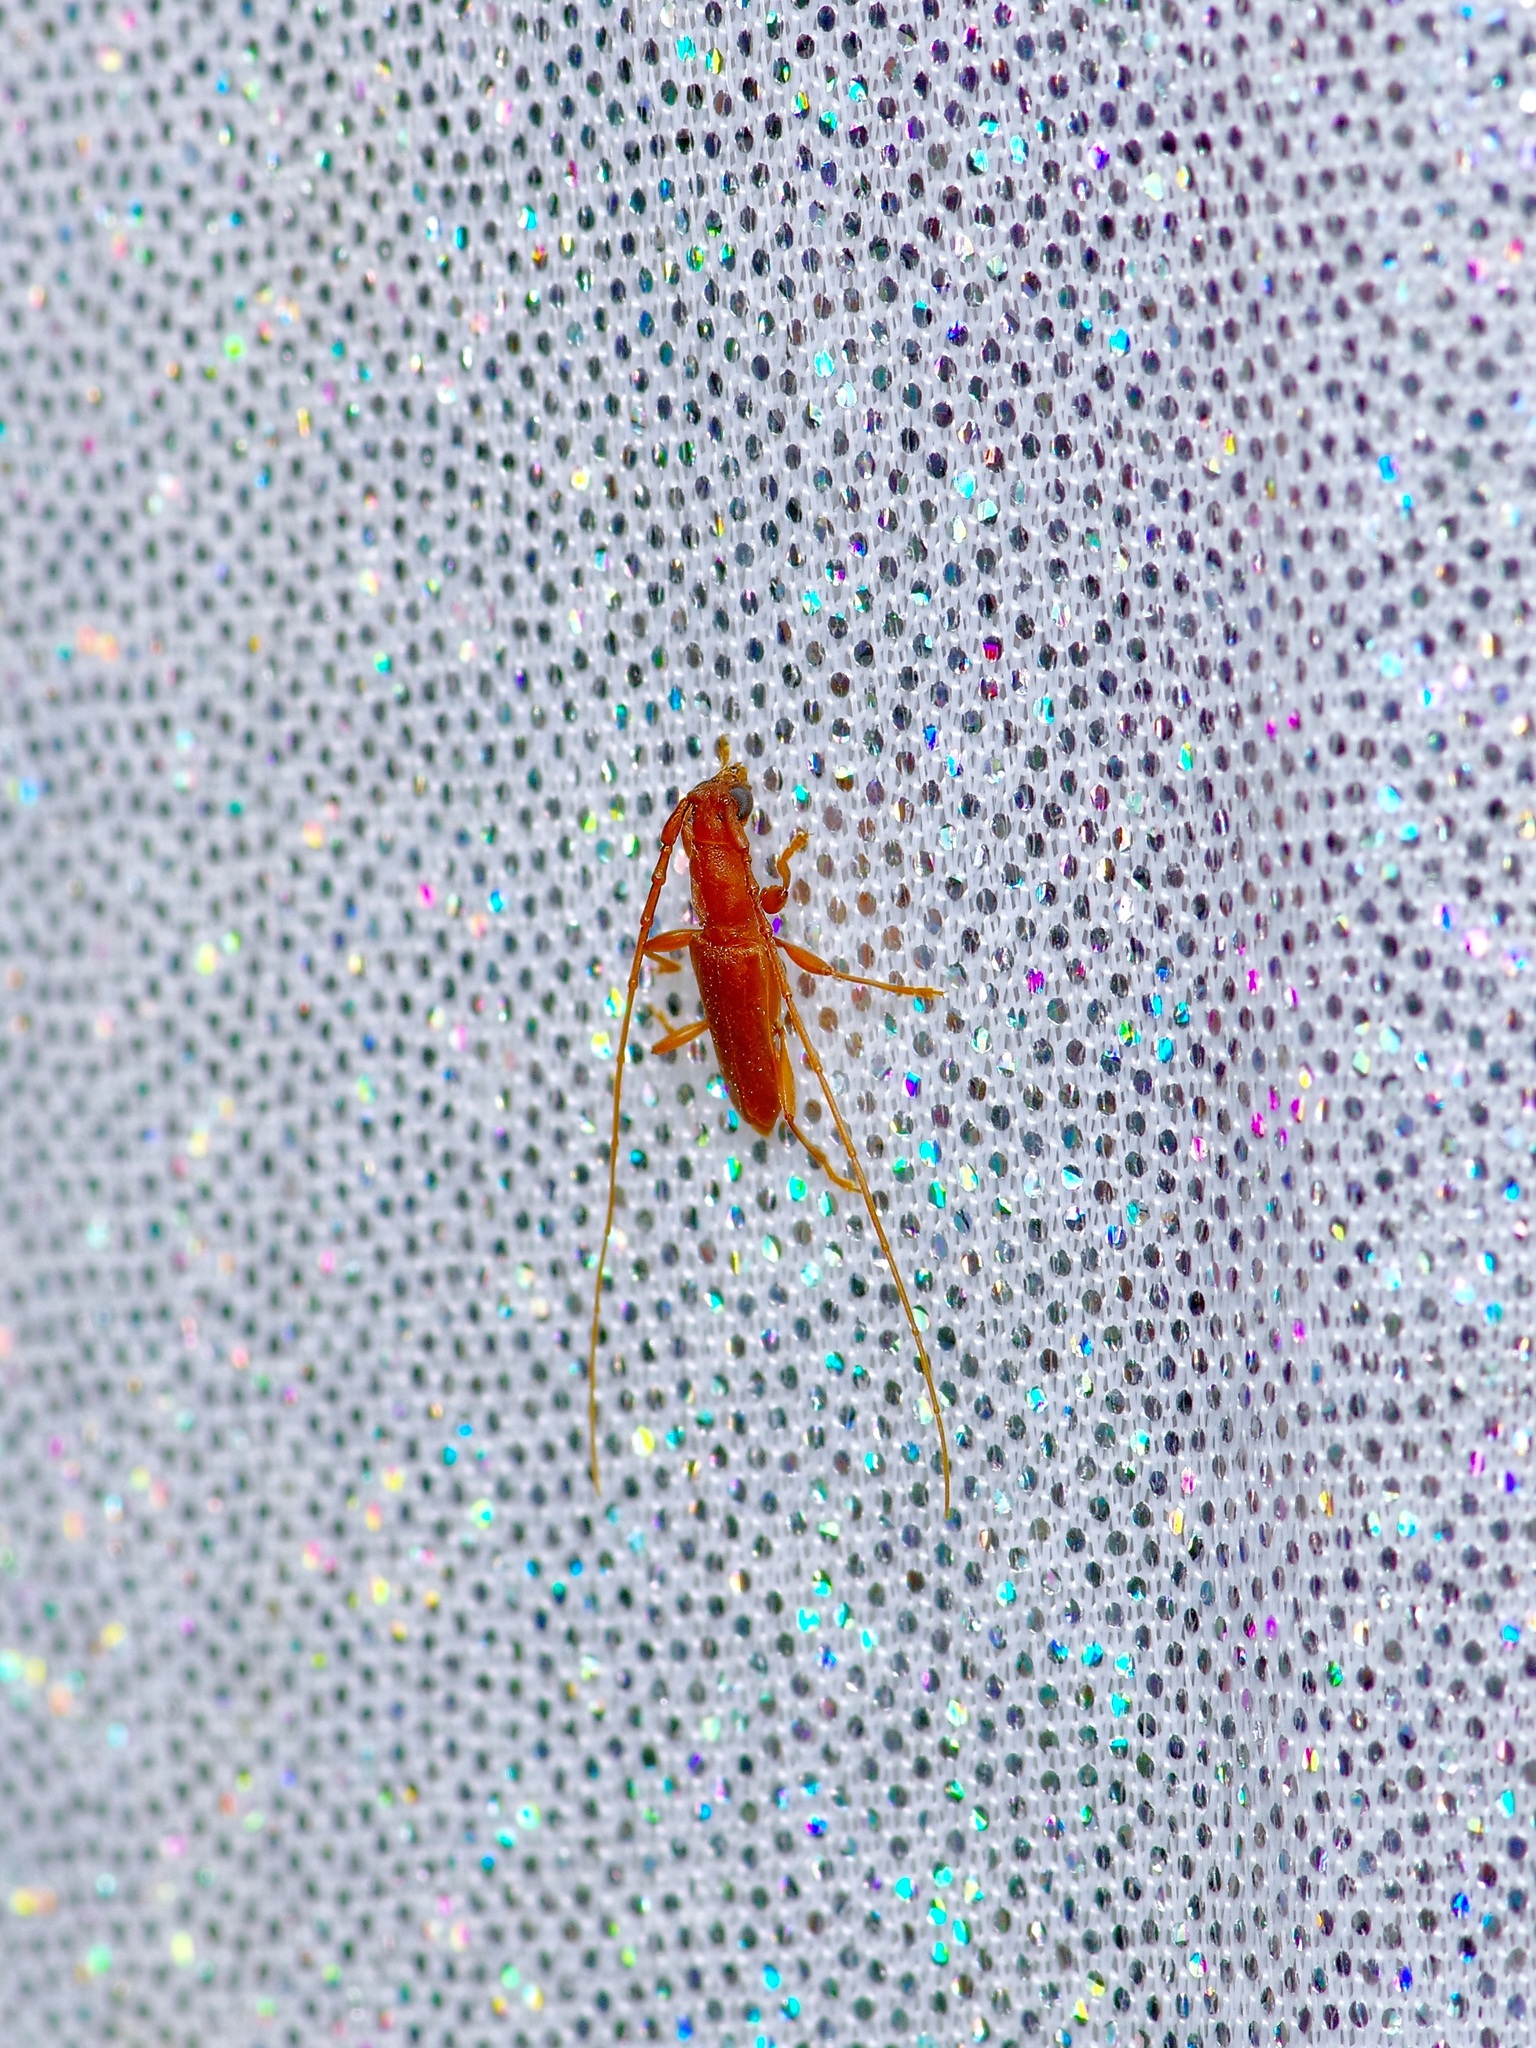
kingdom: Animalia
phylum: Arthropoda
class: Insecta
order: Coleoptera
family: Cerambycidae
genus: Hypexilis
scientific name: Hypexilis pallida
